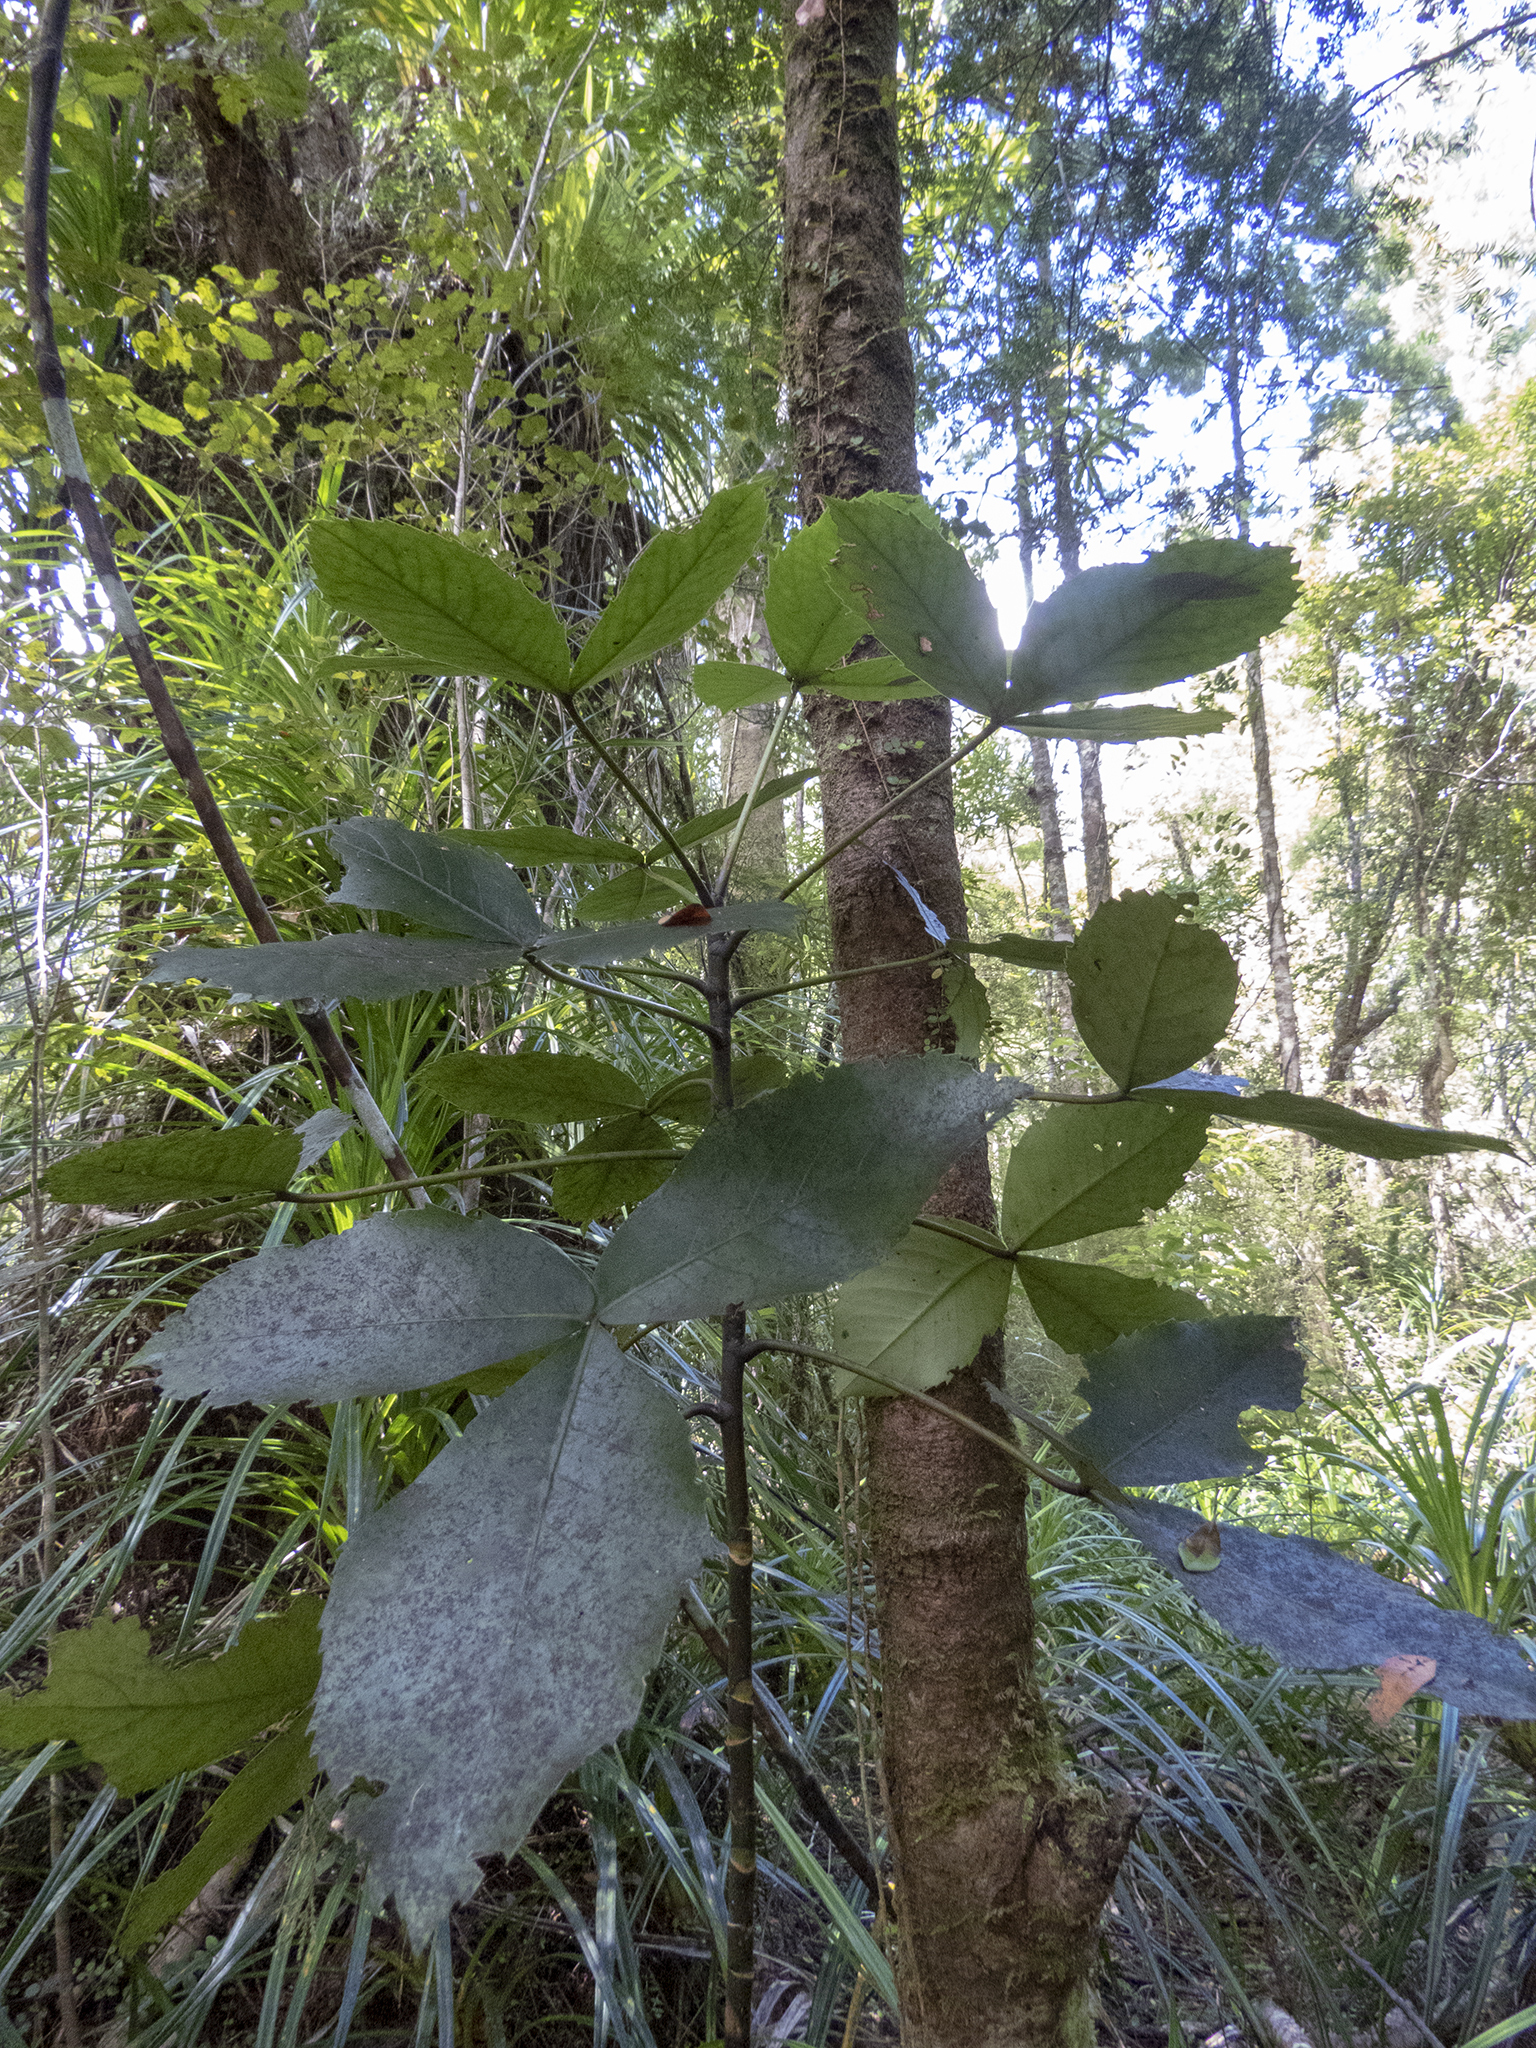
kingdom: Plantae
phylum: Tracheophyta
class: Magnoliopsida
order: Apiales
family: Araliaceae
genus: Neopanax
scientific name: Neopanax colensoi
